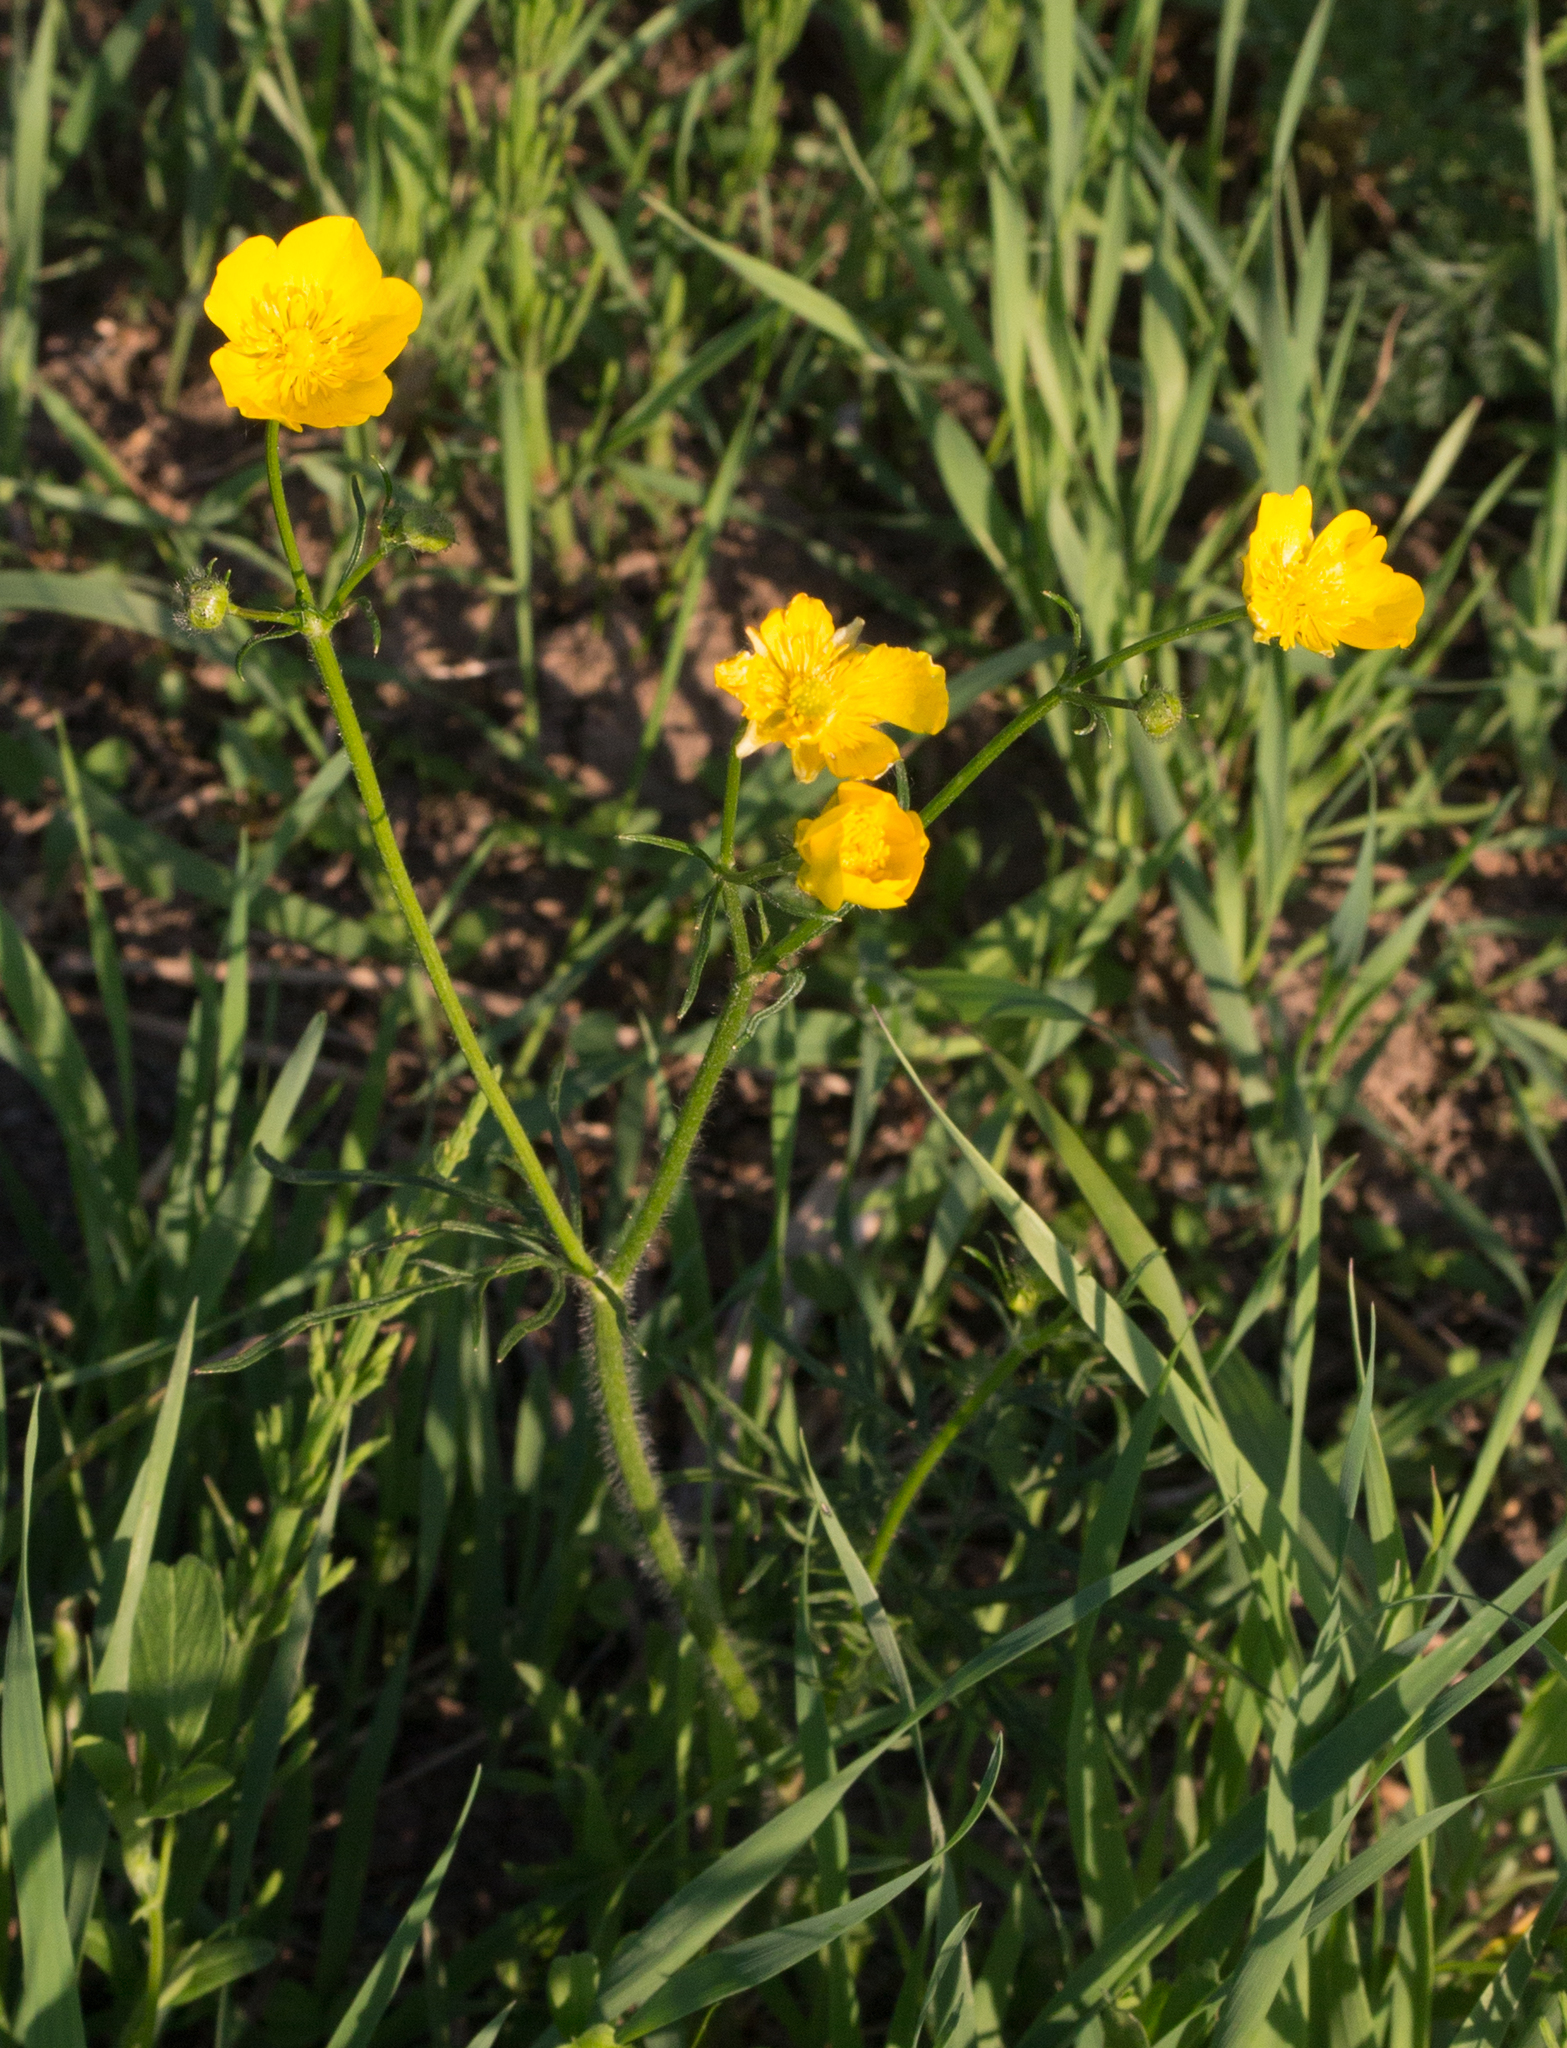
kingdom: Plantae
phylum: Tracheophyta
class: Magnoliopsida
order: Ranunculales
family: Ranunculaceae
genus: Ranunculus
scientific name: Ranunculus polyanthemos
